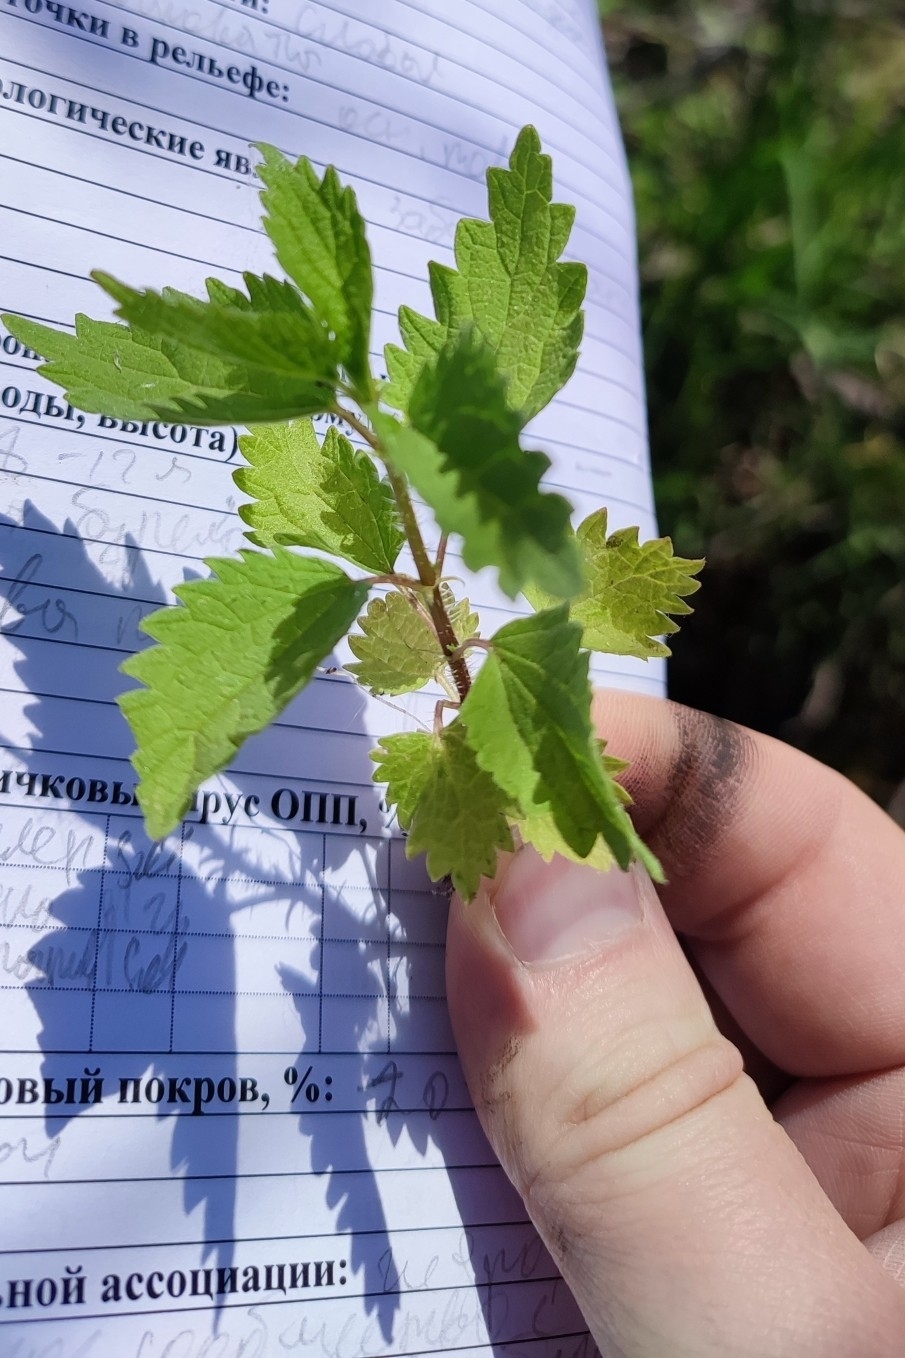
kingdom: Plantae
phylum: Tracheophyta
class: Magnoliopsida
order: Rosales
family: Urticaceae
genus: Urtica
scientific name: Urtica dioica
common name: Common nettle
